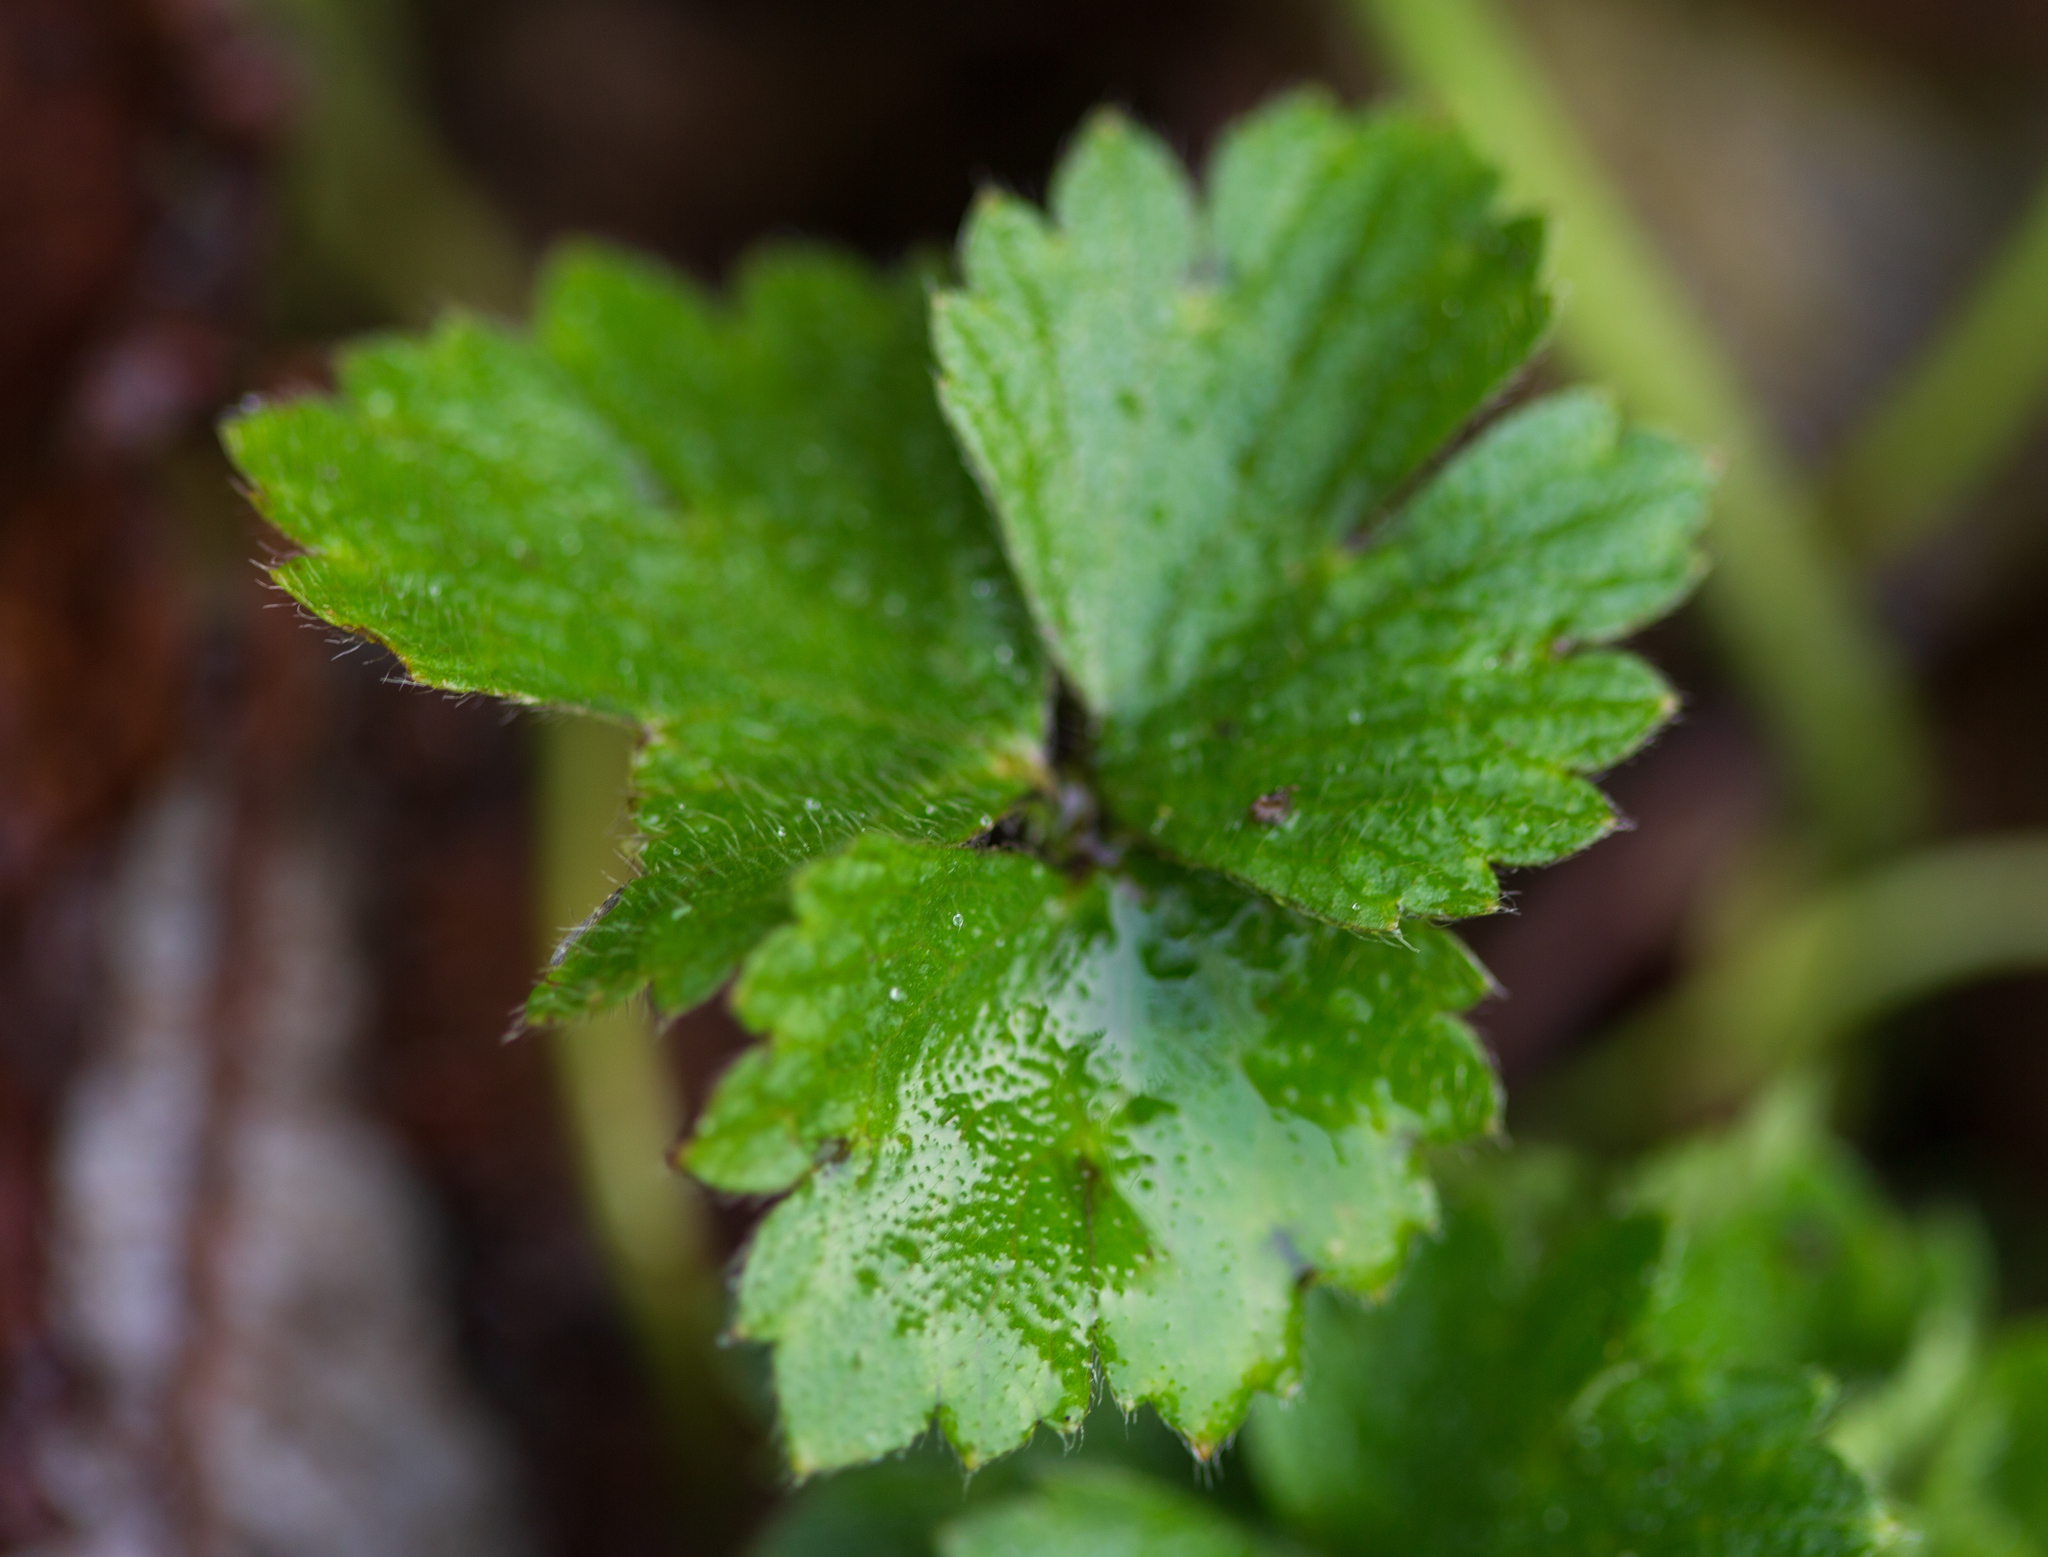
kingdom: Plantae
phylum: Tracheophyta
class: Magnoliopsida
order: Ranunculales
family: Ranunculaceae
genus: Ranunculus
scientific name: Ranunculus repens
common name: Creeping buttercup
